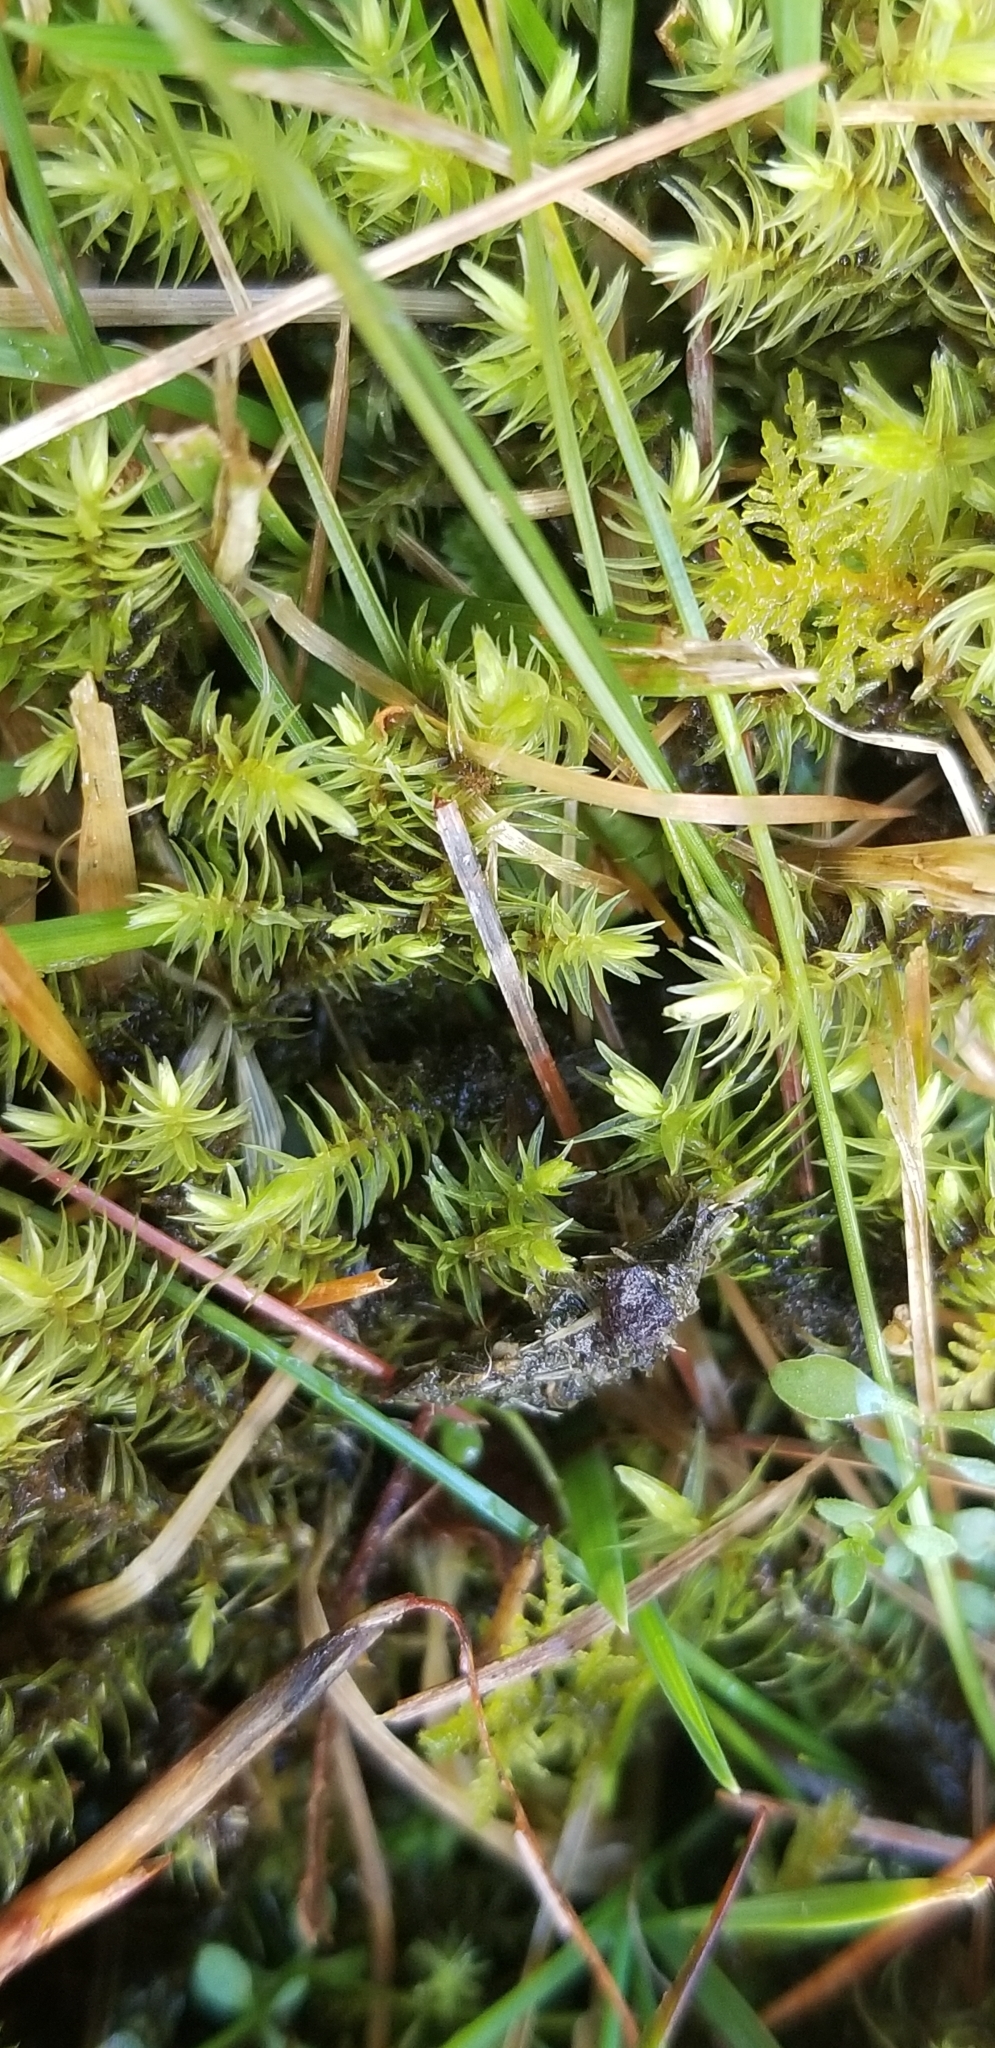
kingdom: Plantae
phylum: Bryophyta
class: Bryopsida
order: Aulacomniales
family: Aulacomniaceae
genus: Aulacomnium
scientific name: Aulacomnium palustre
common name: Bog groove-moss
